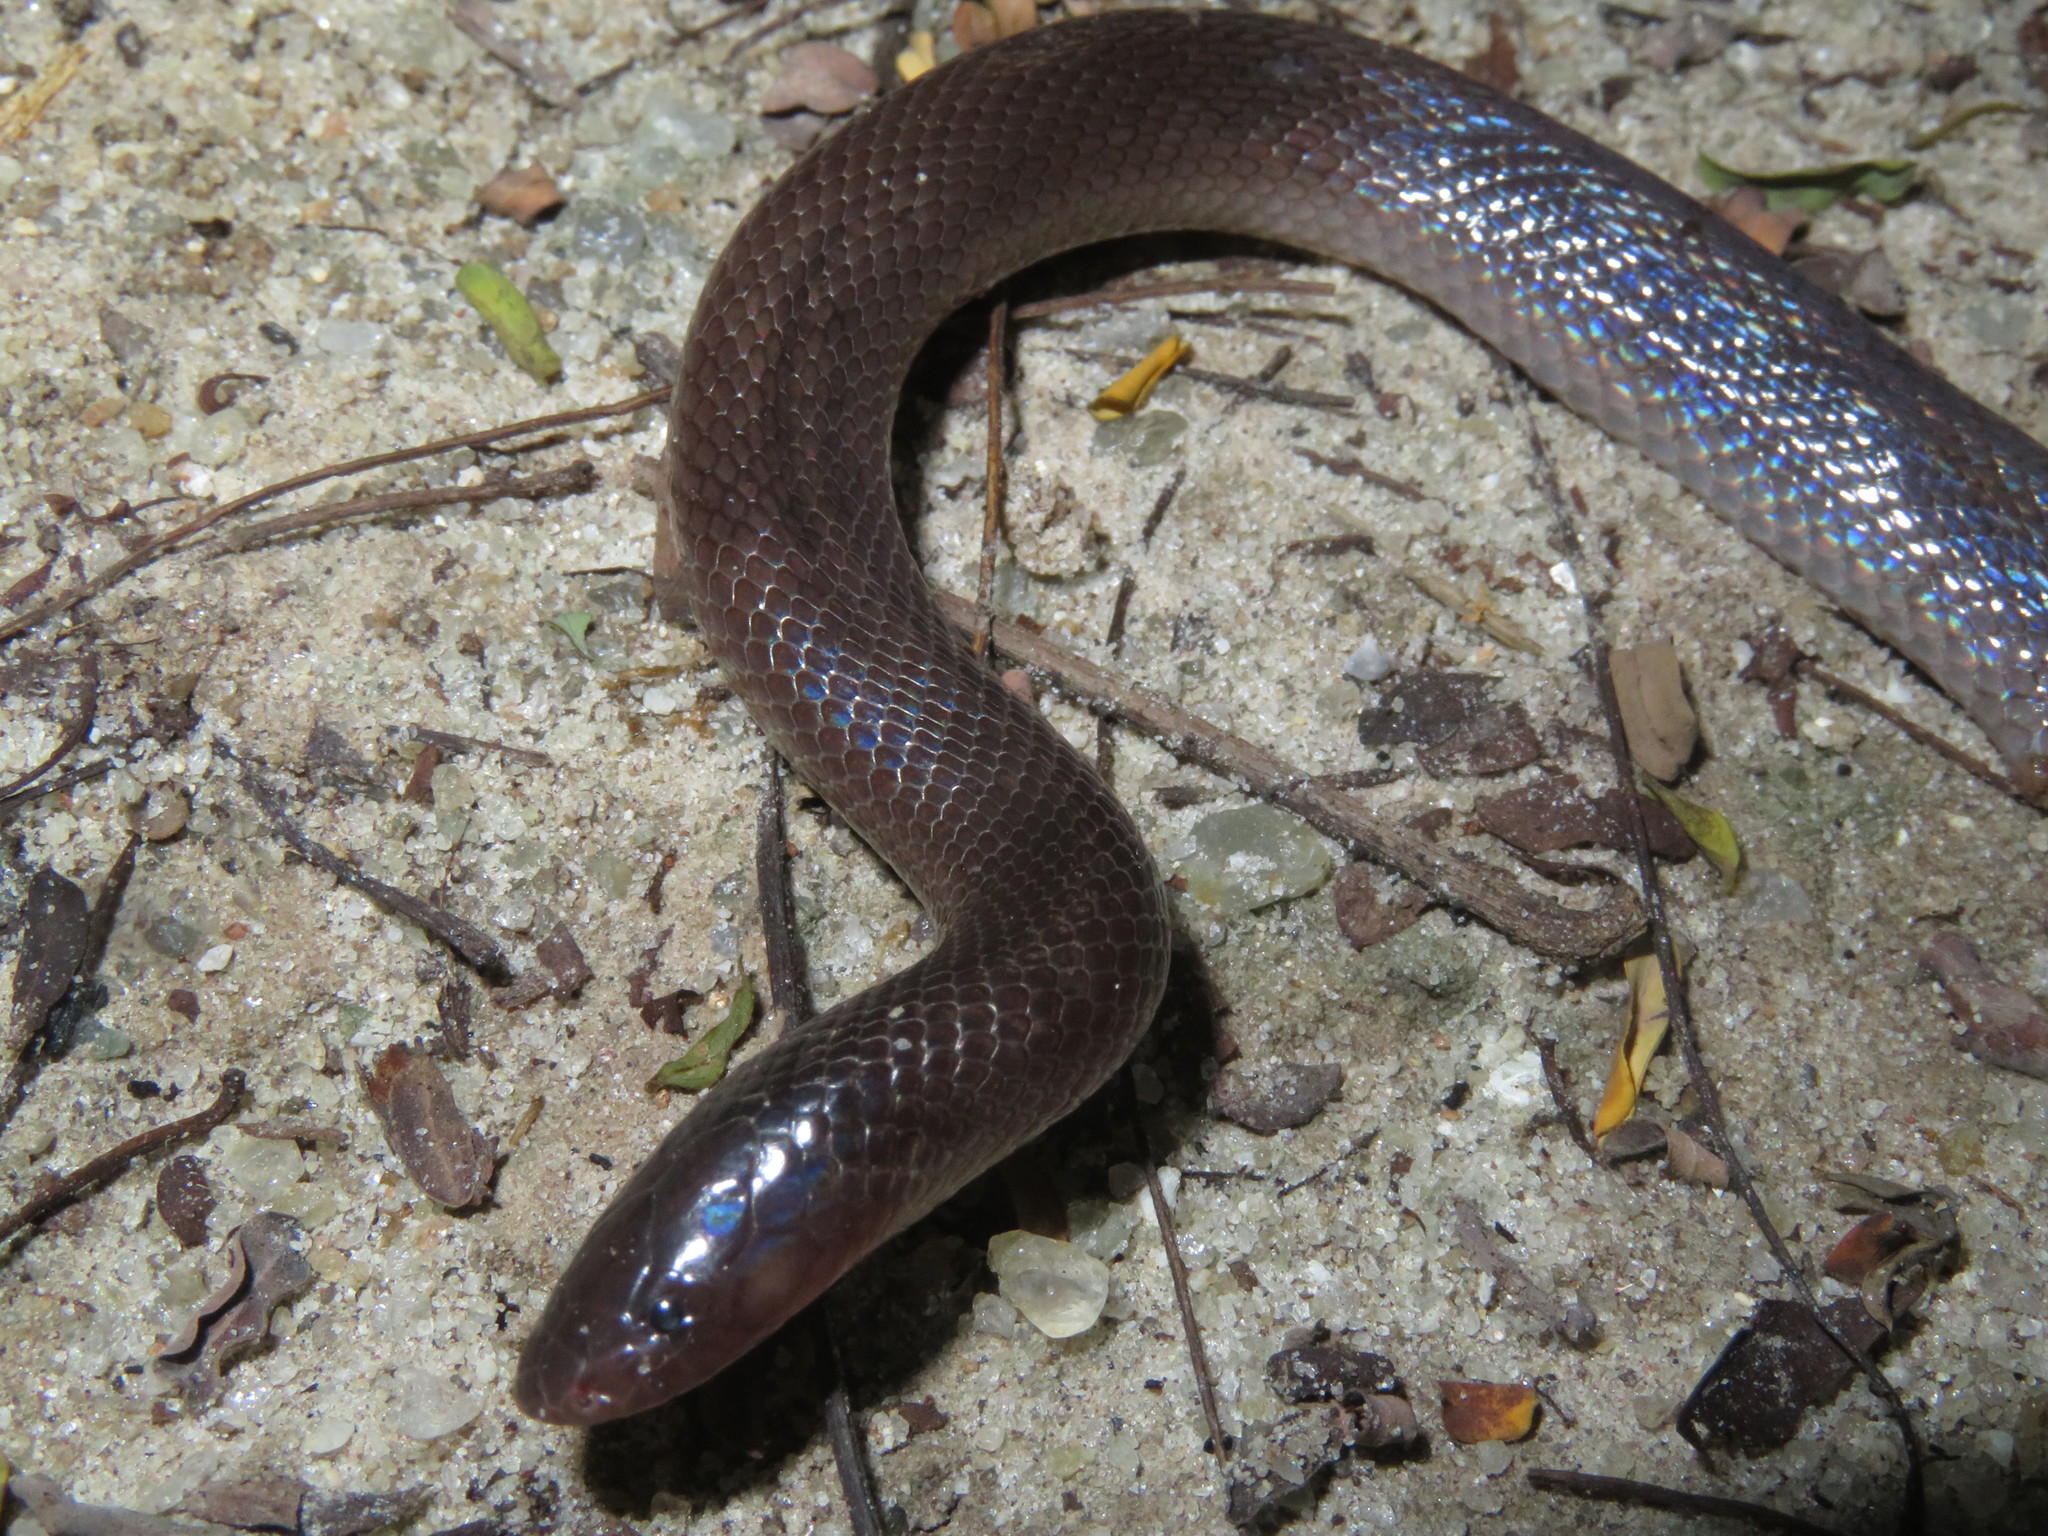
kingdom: Animalia
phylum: Chordata
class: Squamata
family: Atractaspididae
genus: Atractaspis
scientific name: Atractaspis bibronii
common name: Bibron's burrowing asp
